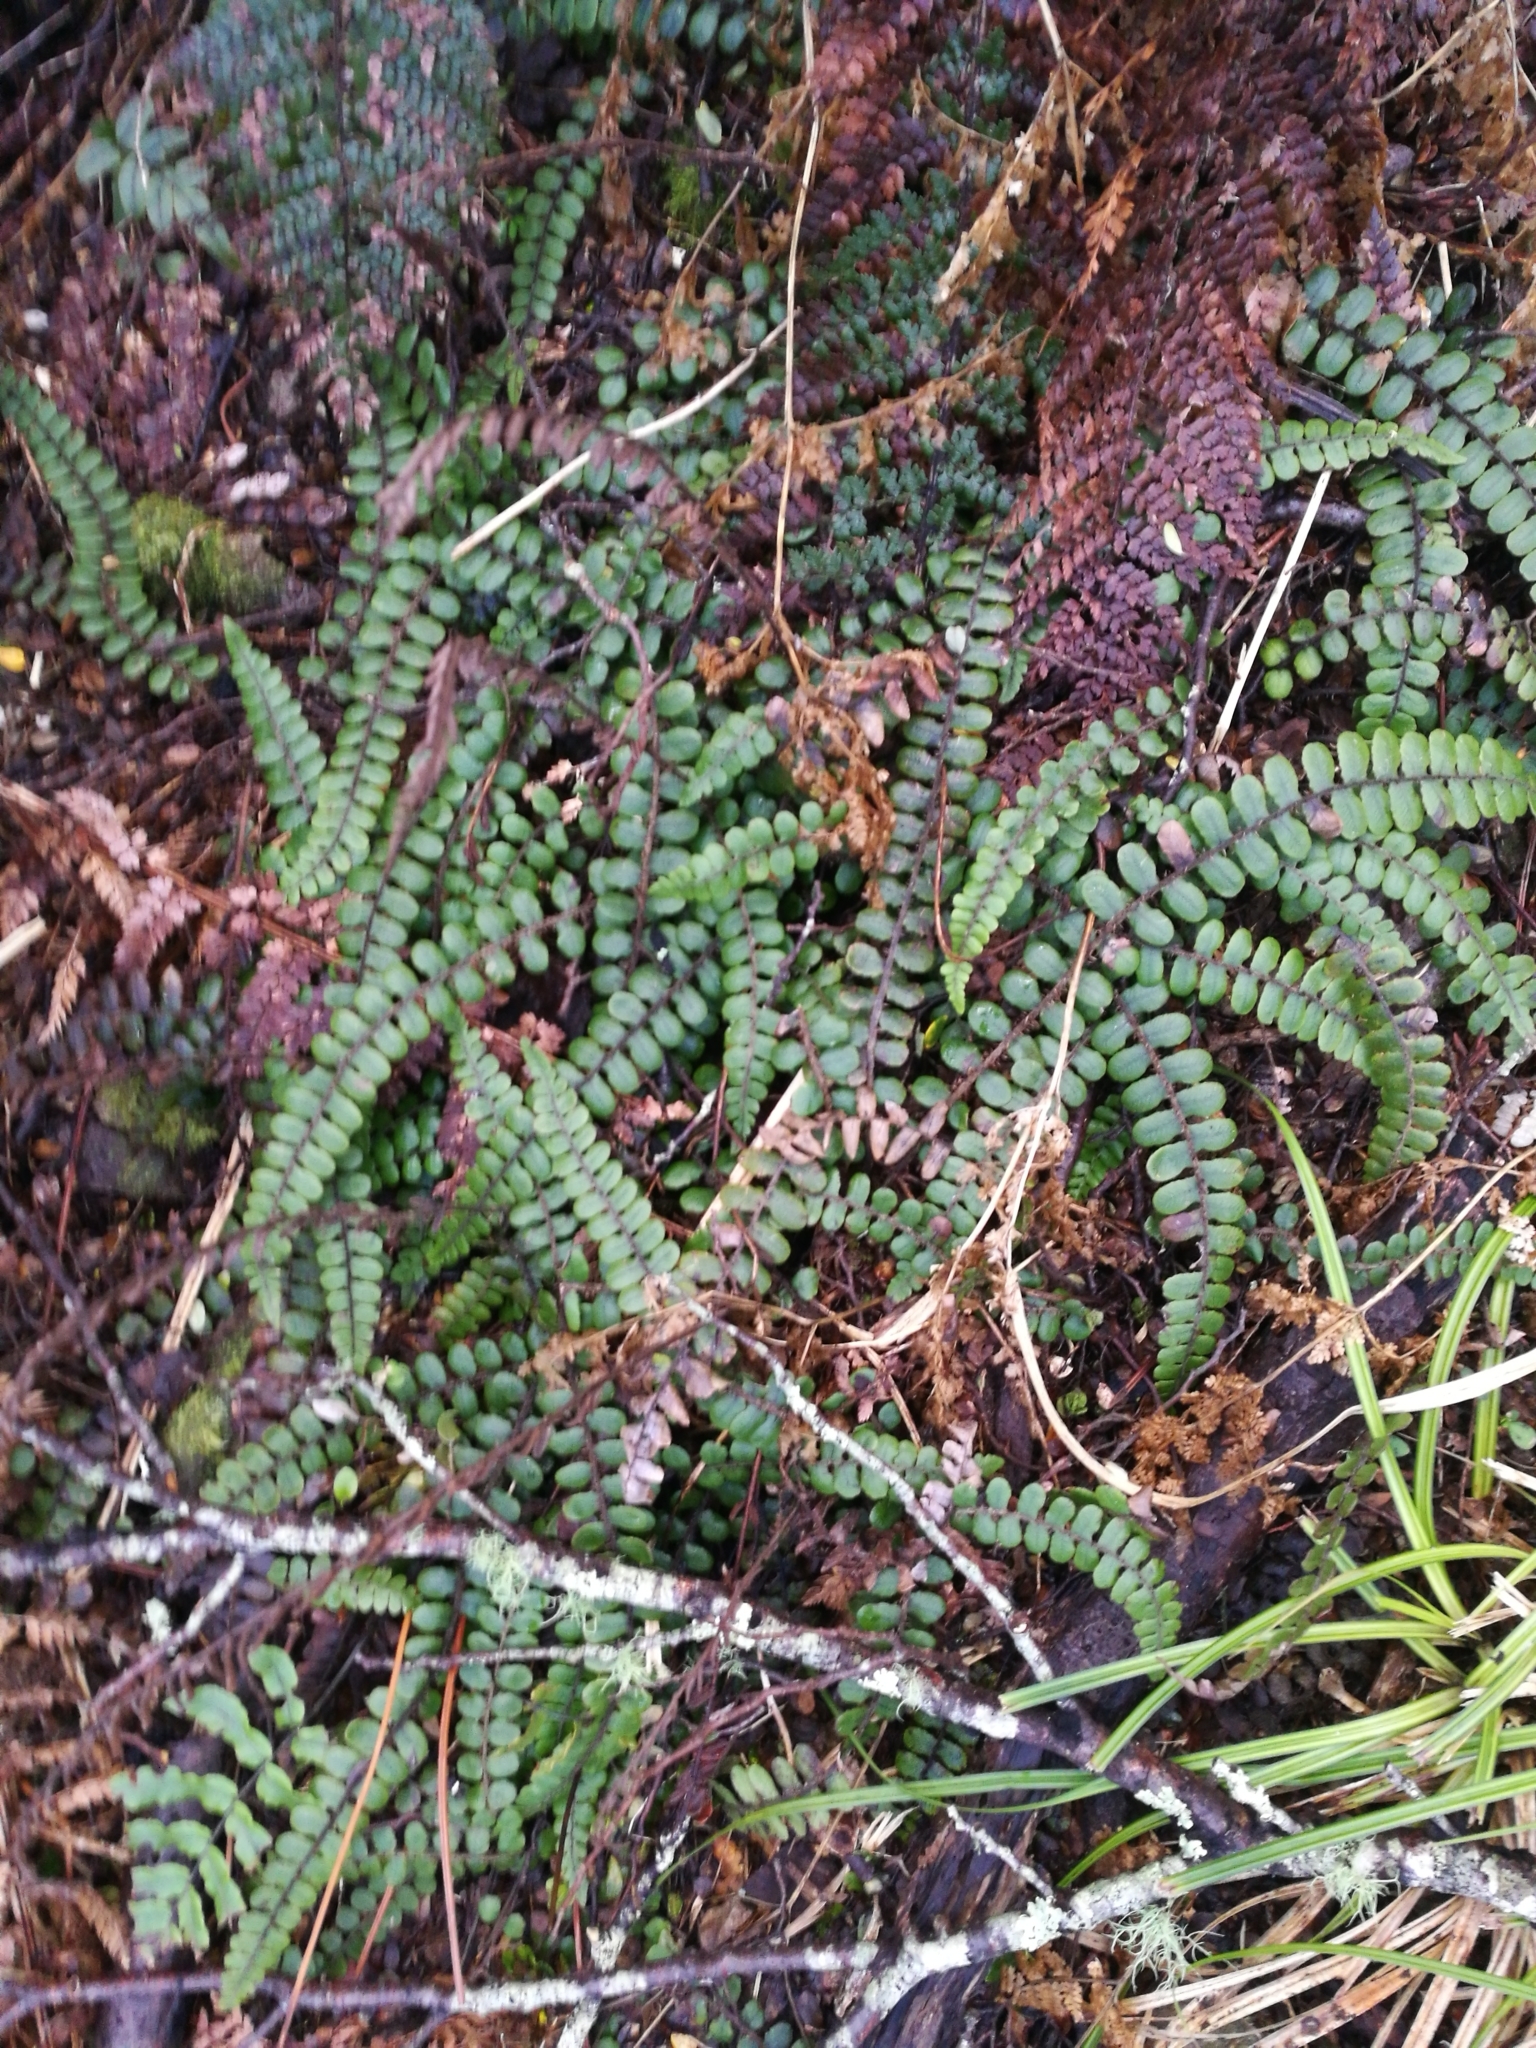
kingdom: Plantae
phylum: Tracheophyta
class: Polypodiopsida
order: Polypodiales
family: Blechnaceae
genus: Cranfillia
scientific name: Cranfillia fluviatilis
